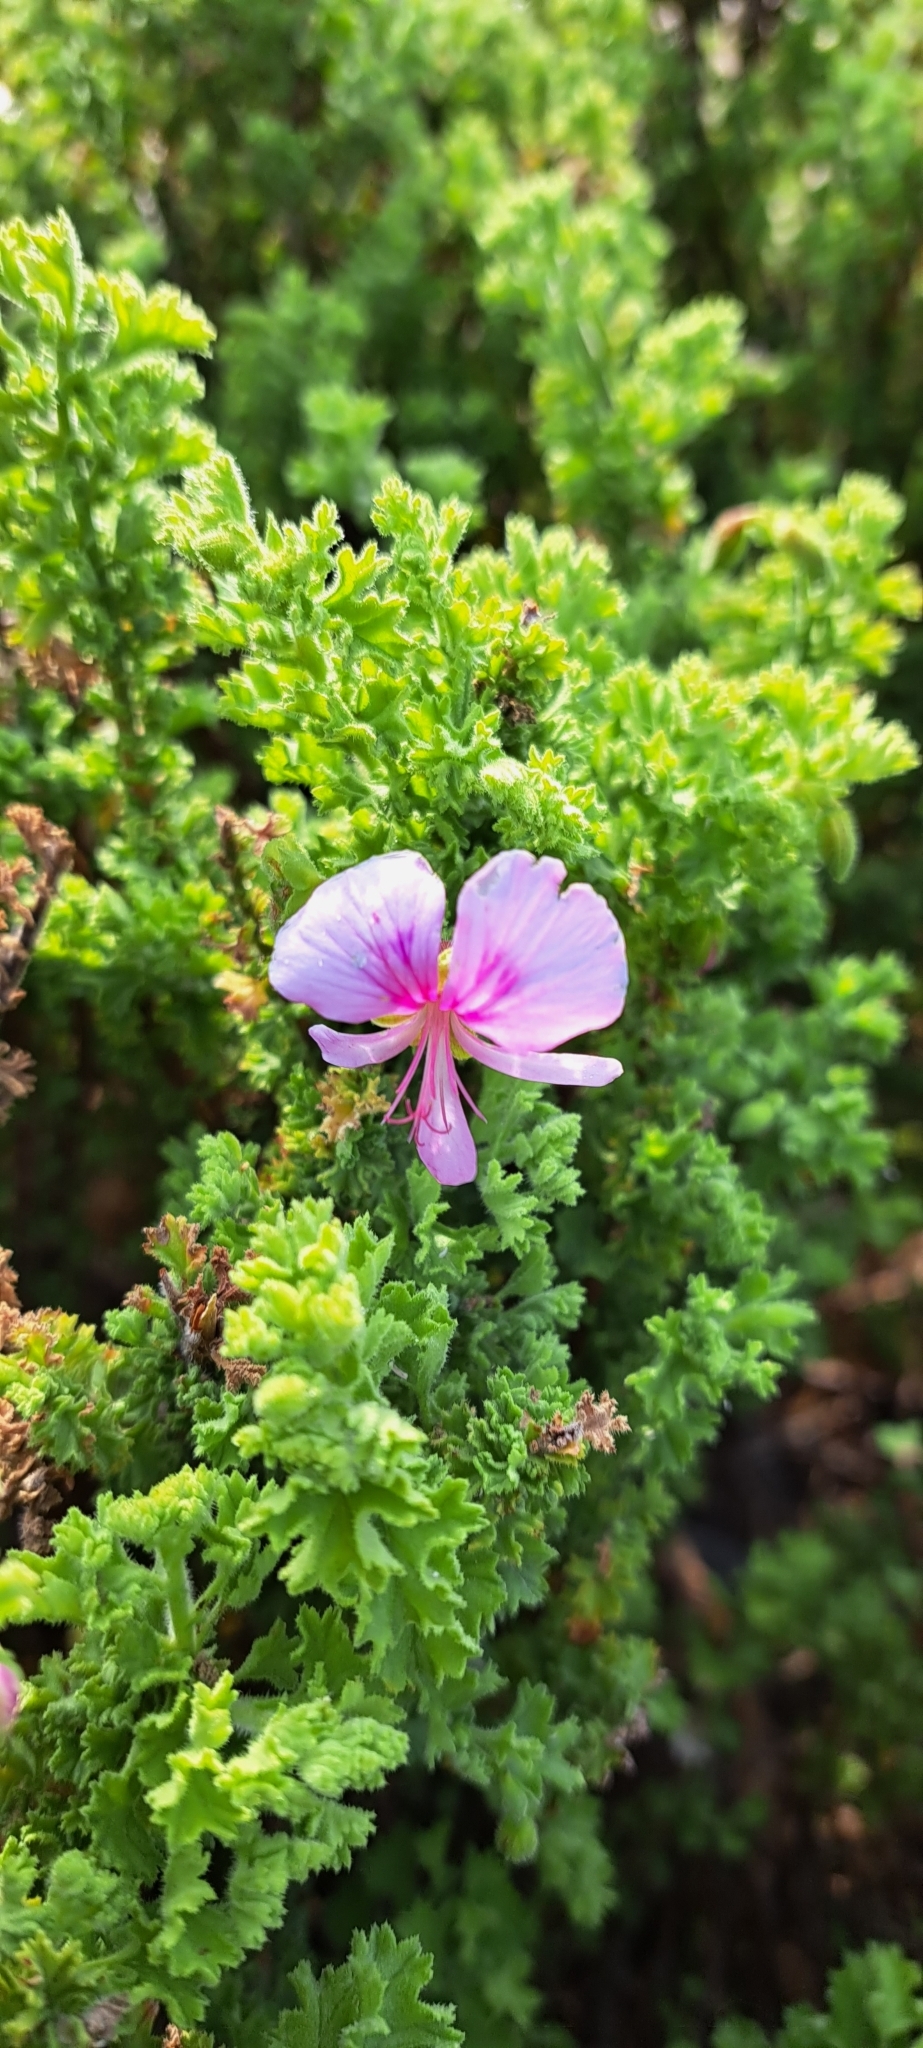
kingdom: Plantae
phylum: Tracheophyta
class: Magnoliopsida
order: Geraniales
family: Geraniaceae
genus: Pelargonium
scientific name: Pelargonium crispum
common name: Crisped-leaf pelargonium
